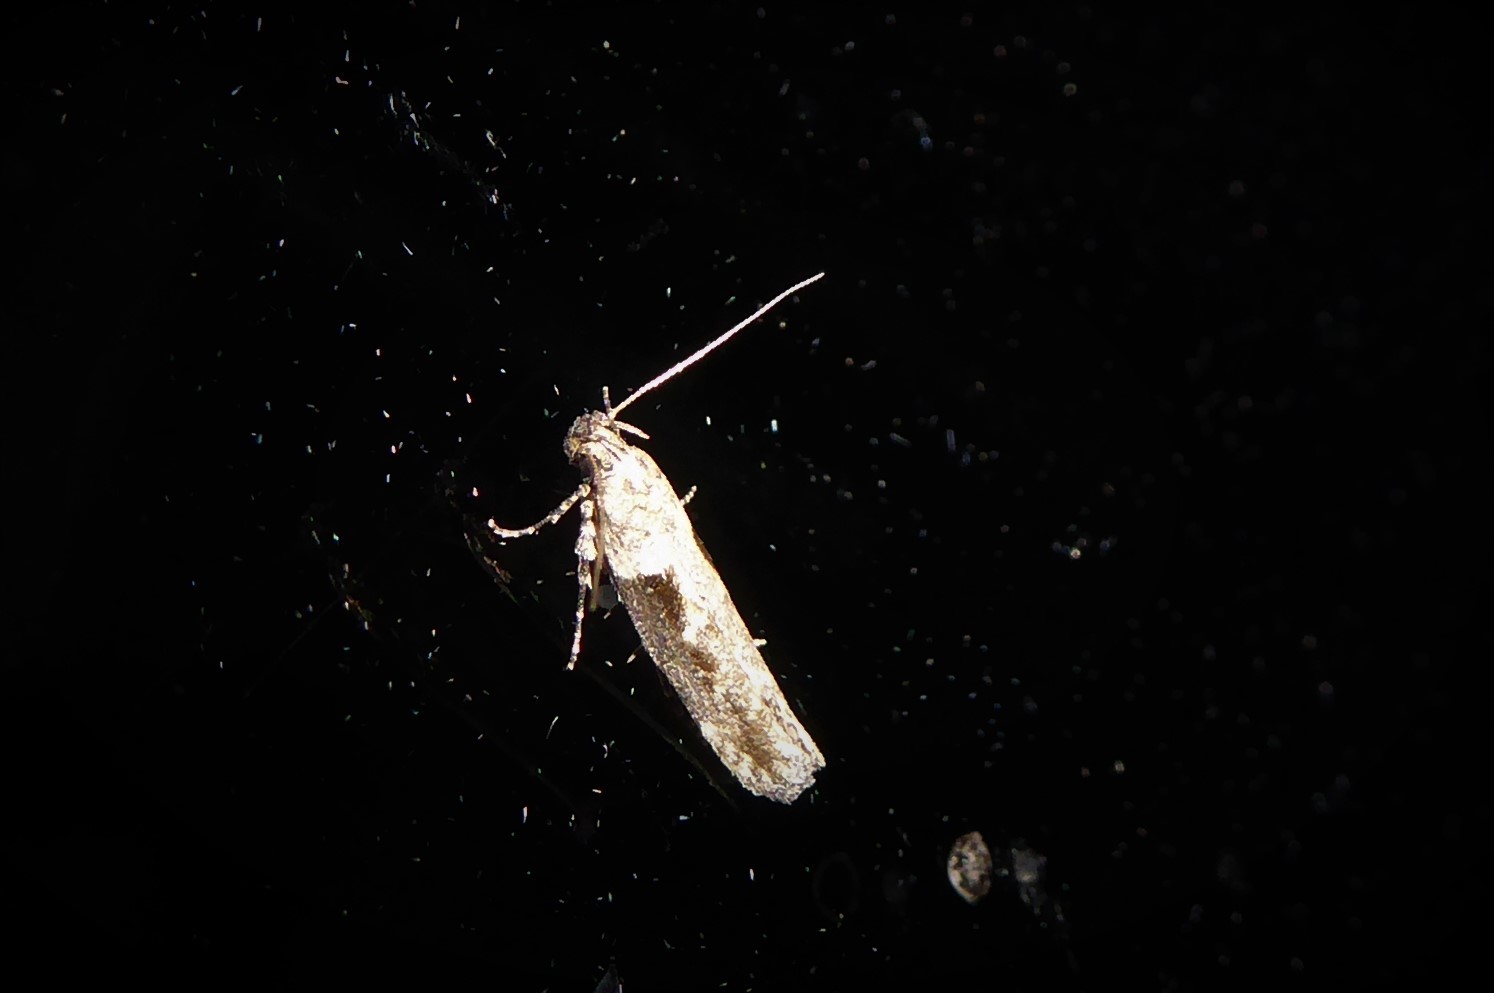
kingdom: Animalia
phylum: Arthropoda
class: Insecta
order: Lepidoptera
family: Gelechiidae
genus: Symmetrischema
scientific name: Symmetrischema tangolias
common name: Moth
